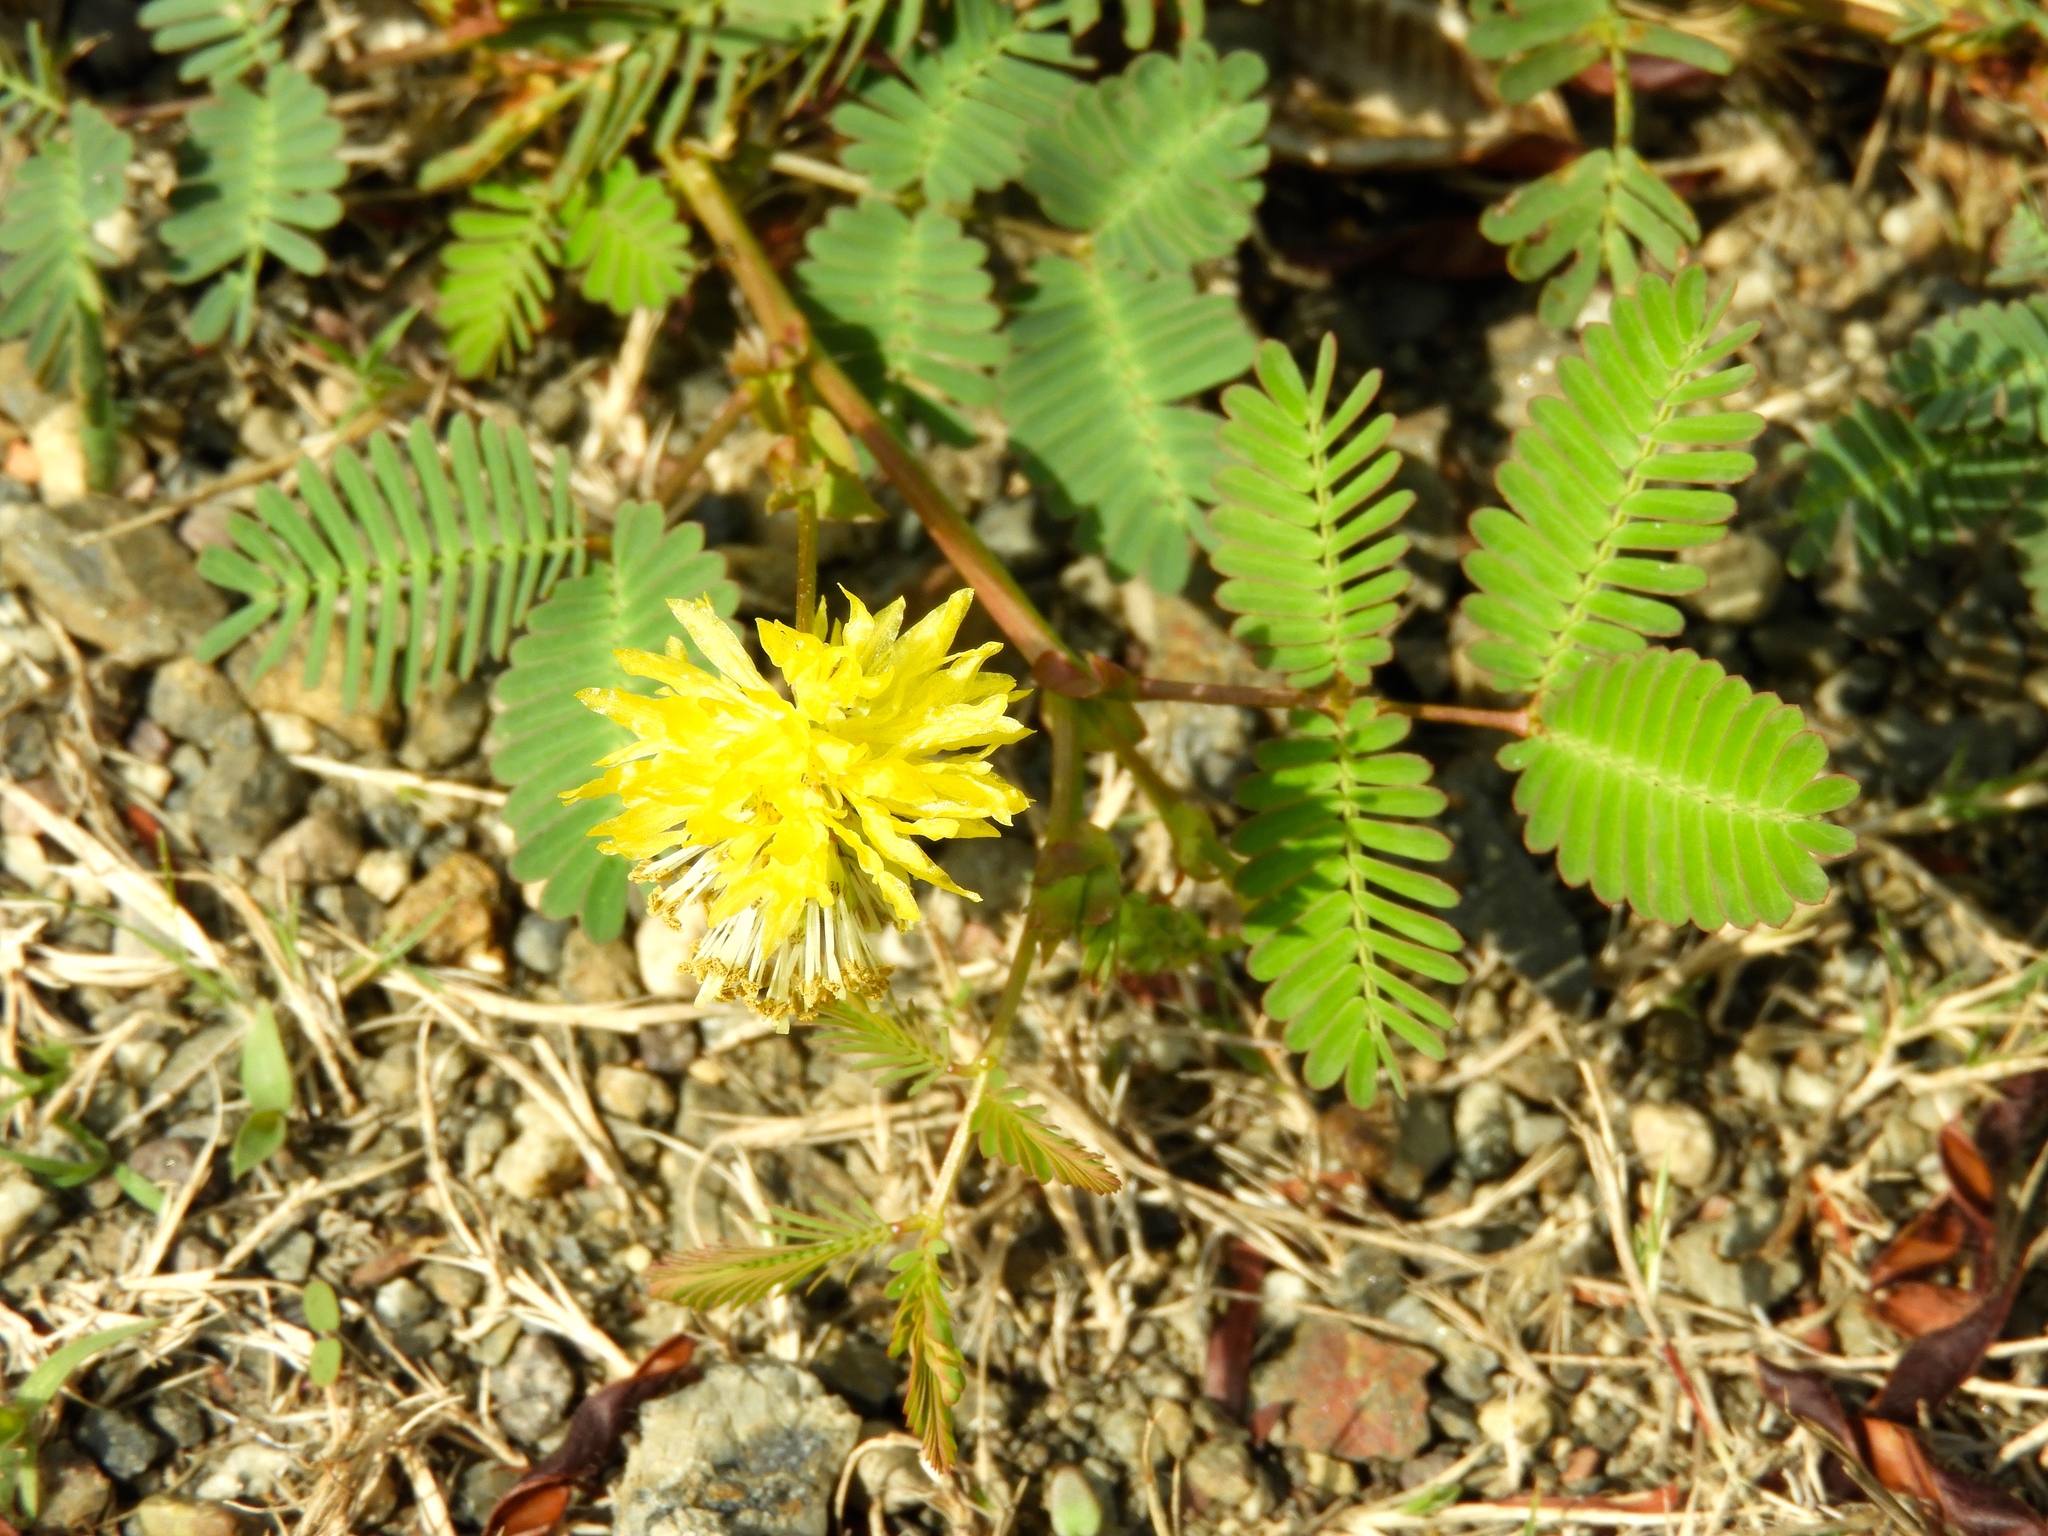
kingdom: Plantae
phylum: Tracheophyta
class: Magnoliopsida
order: Fabales
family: Fabaceae
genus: Neptunia
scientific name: Neptunia
